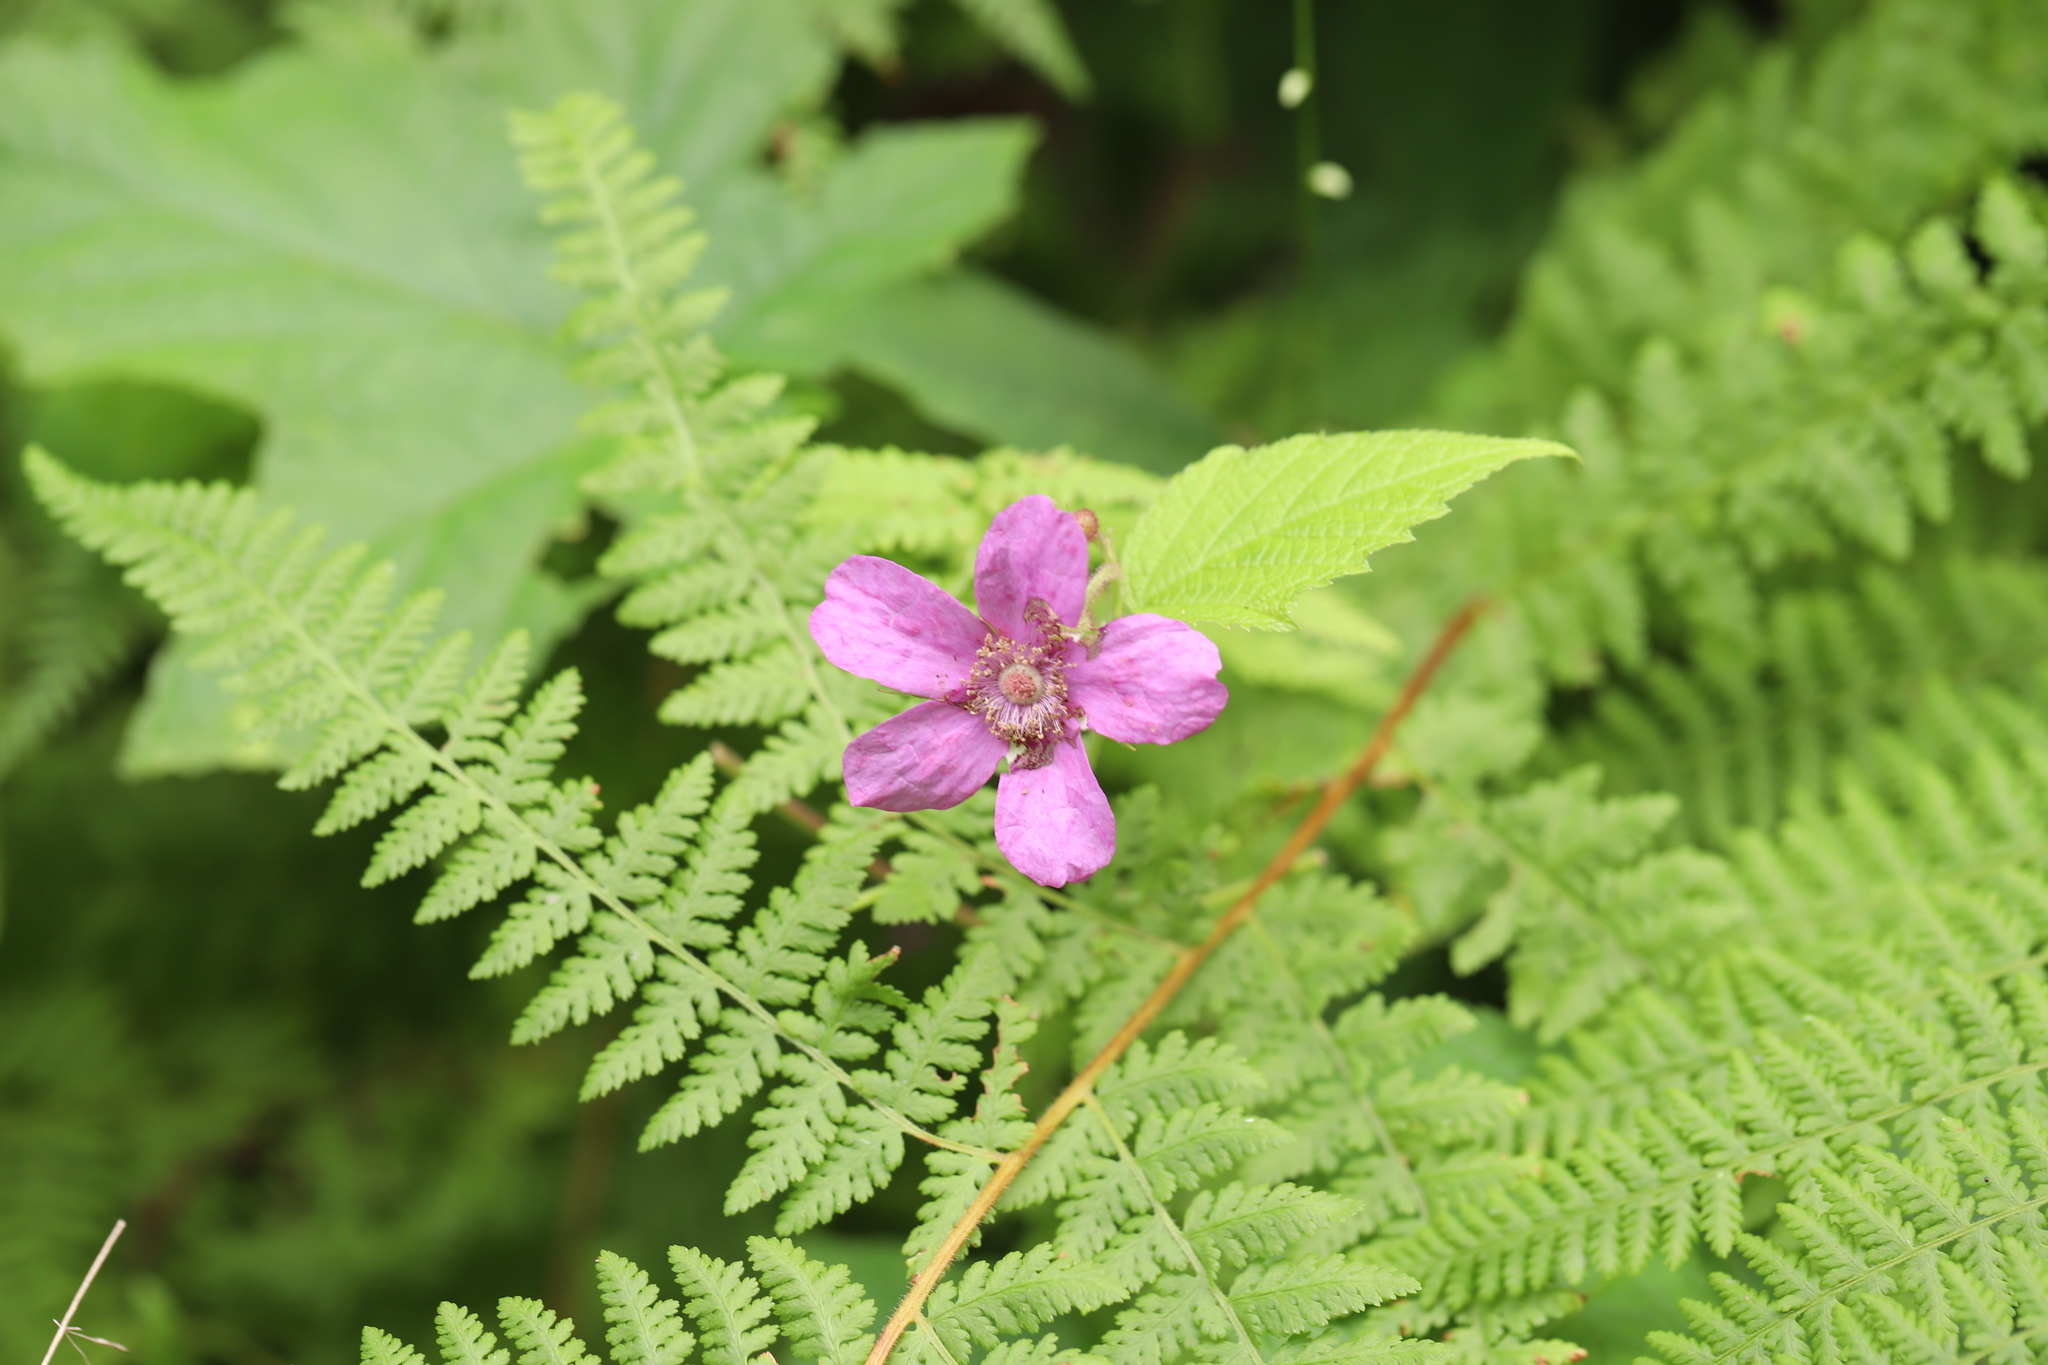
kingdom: Plantae
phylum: Tracheophyta
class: Magnoliopsida
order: Rosales
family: Rosaceae
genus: Rubus
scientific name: Rubus odoratus
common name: Purple-flowered raspberry
